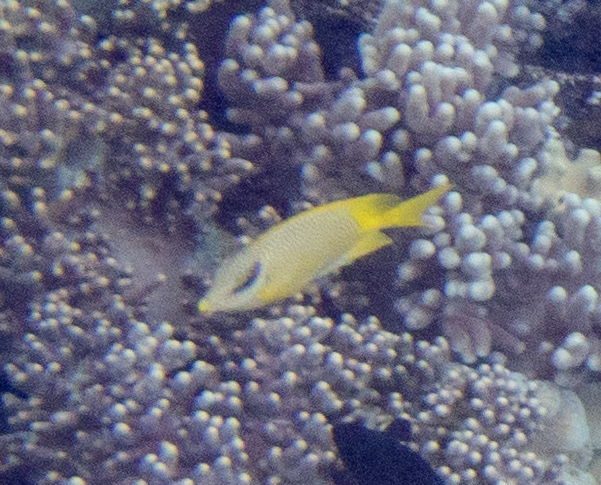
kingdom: Animalia
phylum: Chordata
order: Perciformes
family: Siganidae
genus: Siganus
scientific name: Siganus corallinus
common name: Coral rabbitfish
